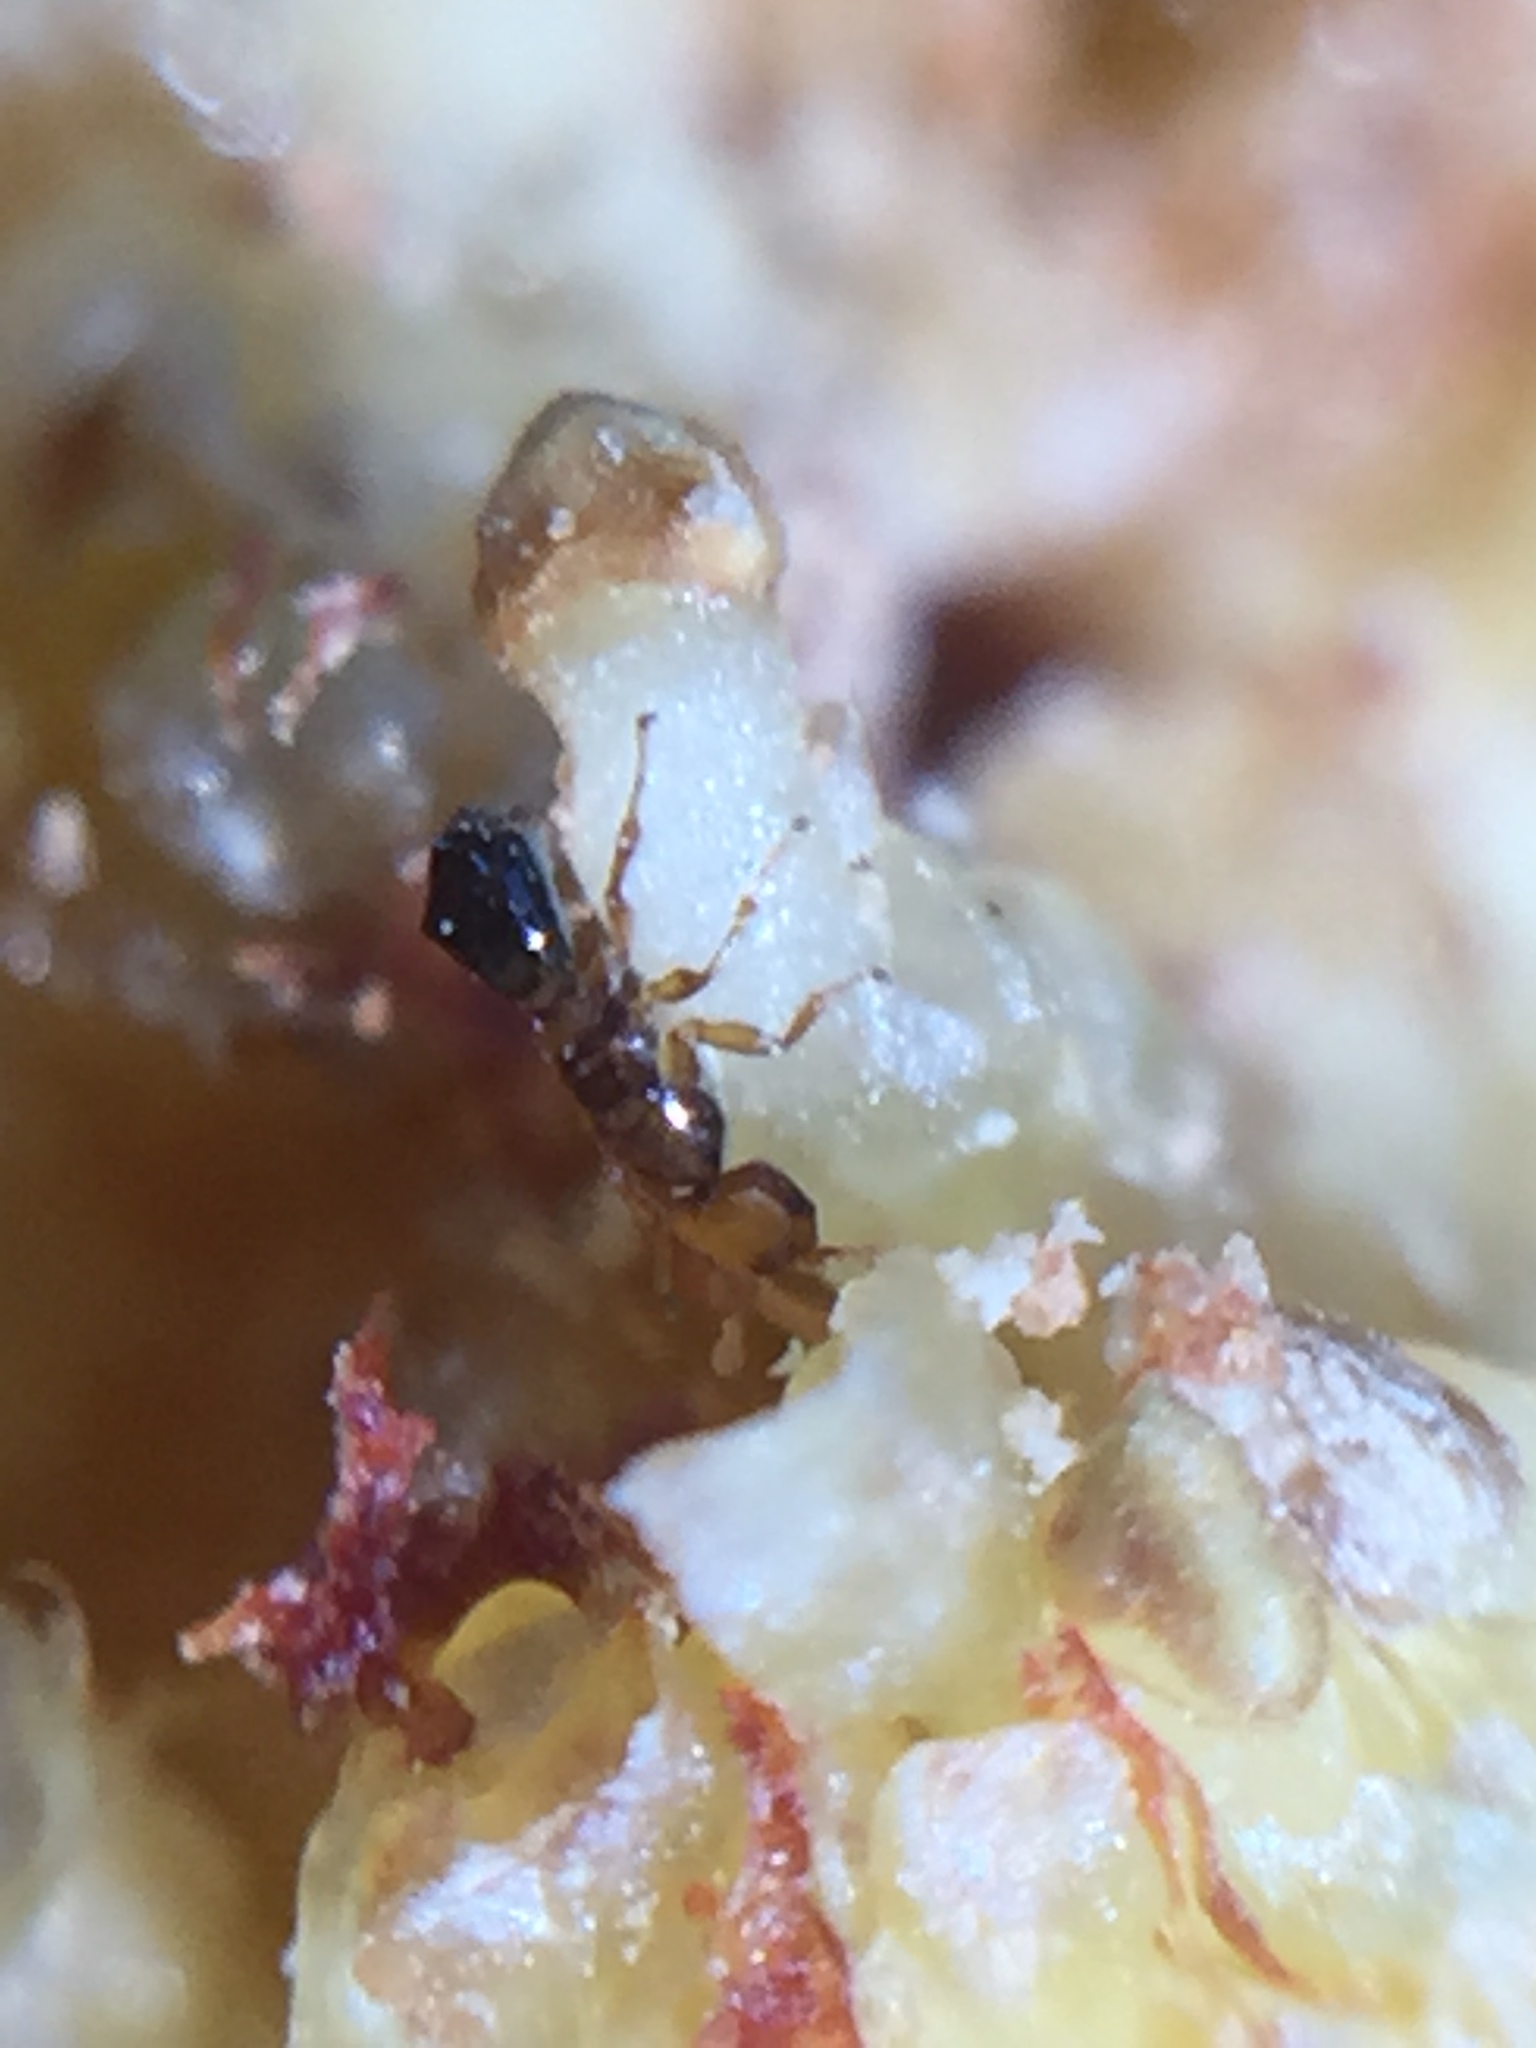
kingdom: Animalia
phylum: Arthropoda
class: Insecta
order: Hymenoptera
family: Agaonidae
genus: Pseudidarnes
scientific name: Pseudidarnes minerva
